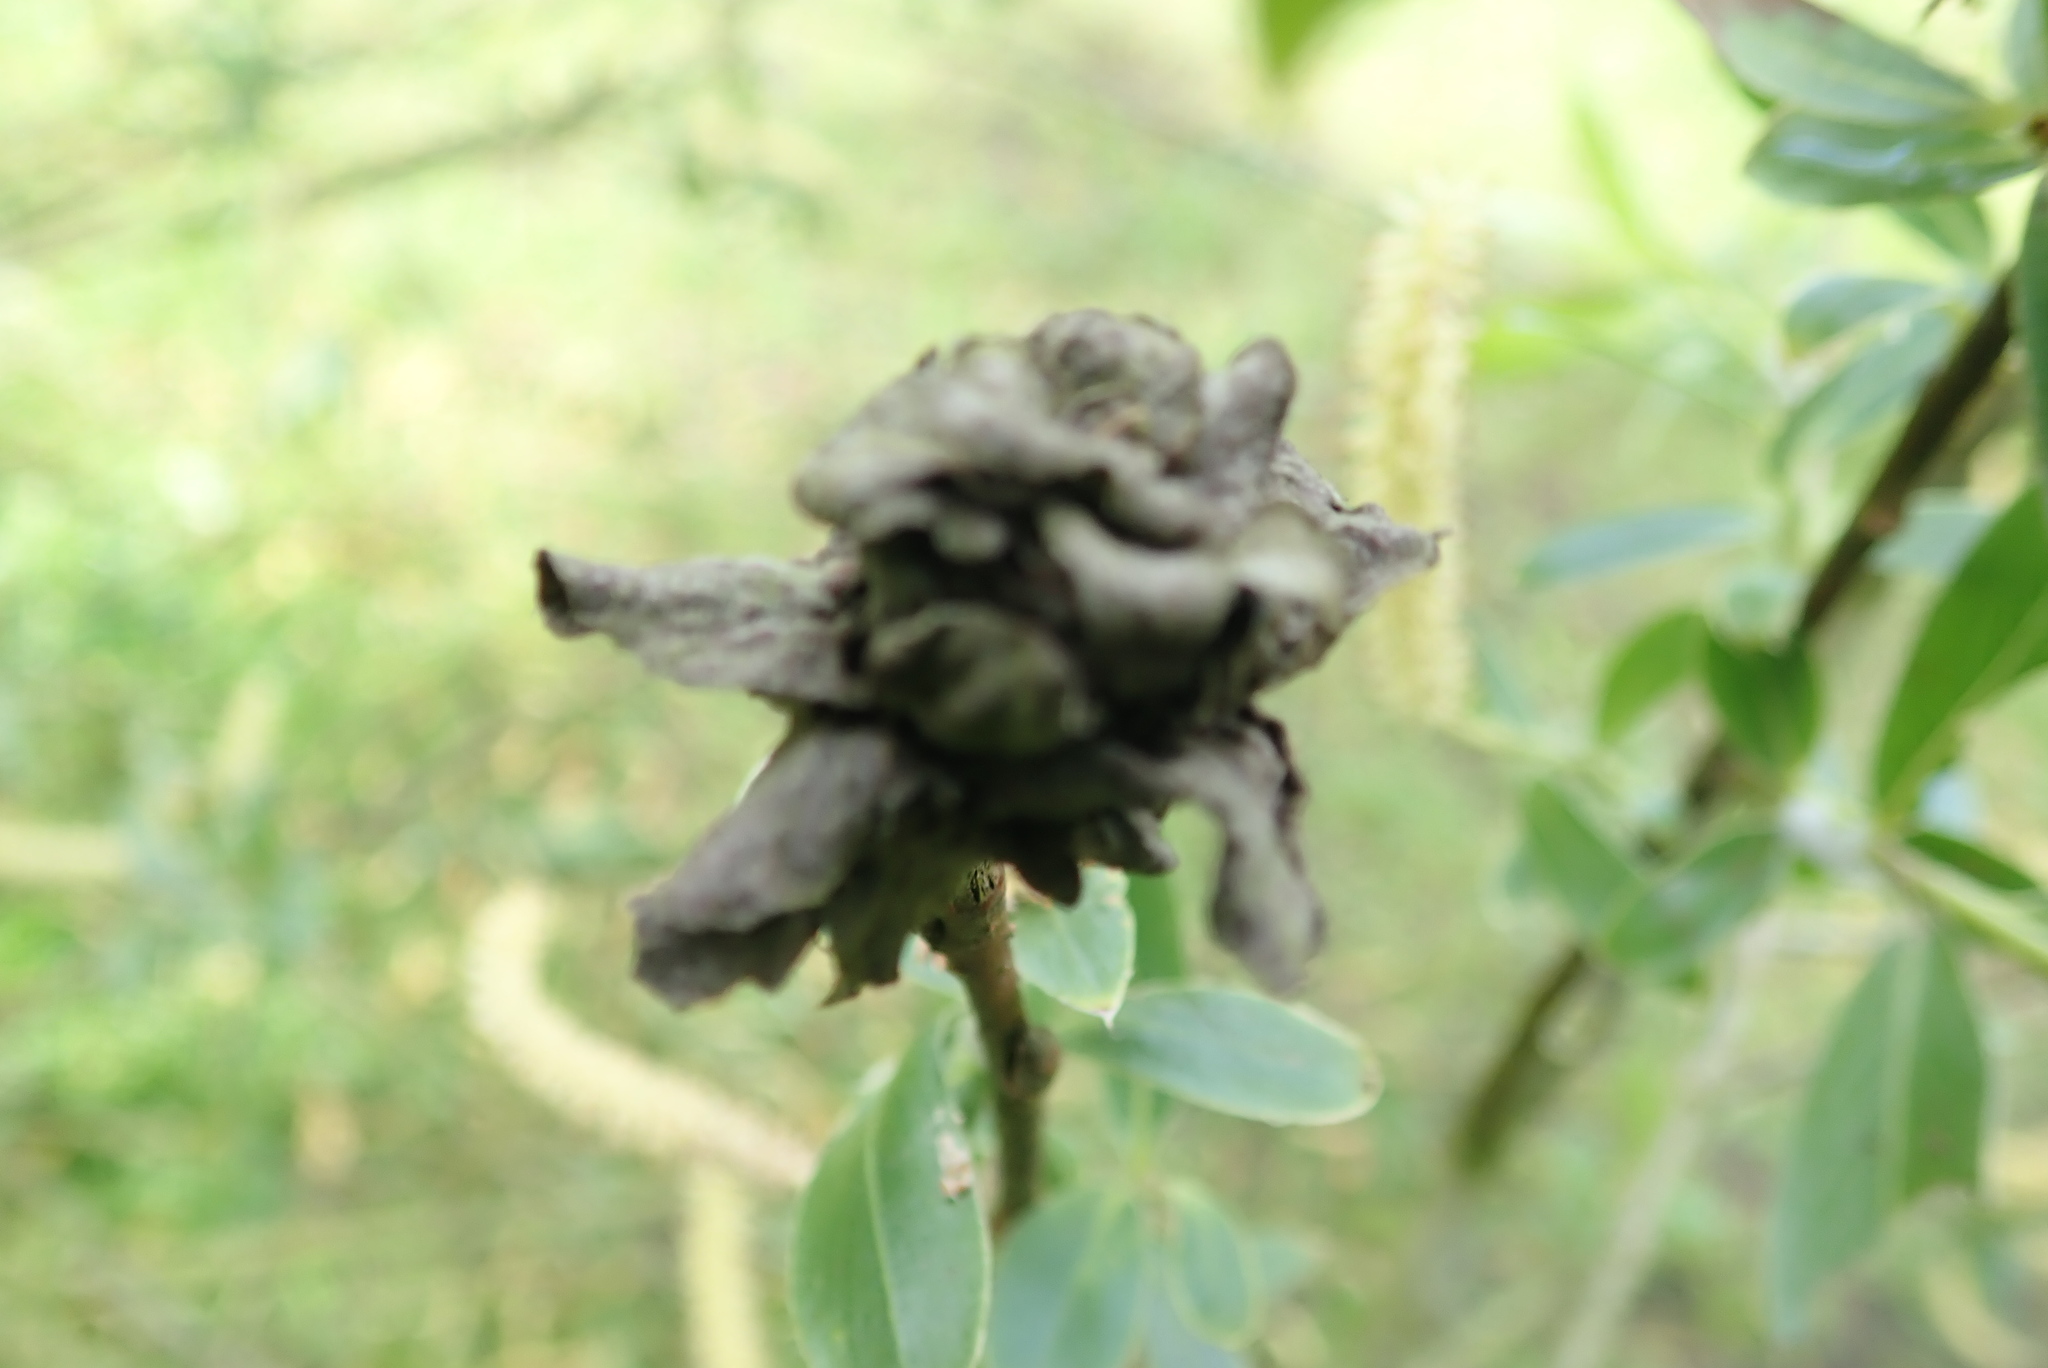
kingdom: Animalia
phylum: Arthropoda
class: Insecta
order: Diptera
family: Cecidomyiidae
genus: Rabdophaga
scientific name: Rabdophaga rosaria
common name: Willow rose gall midge
